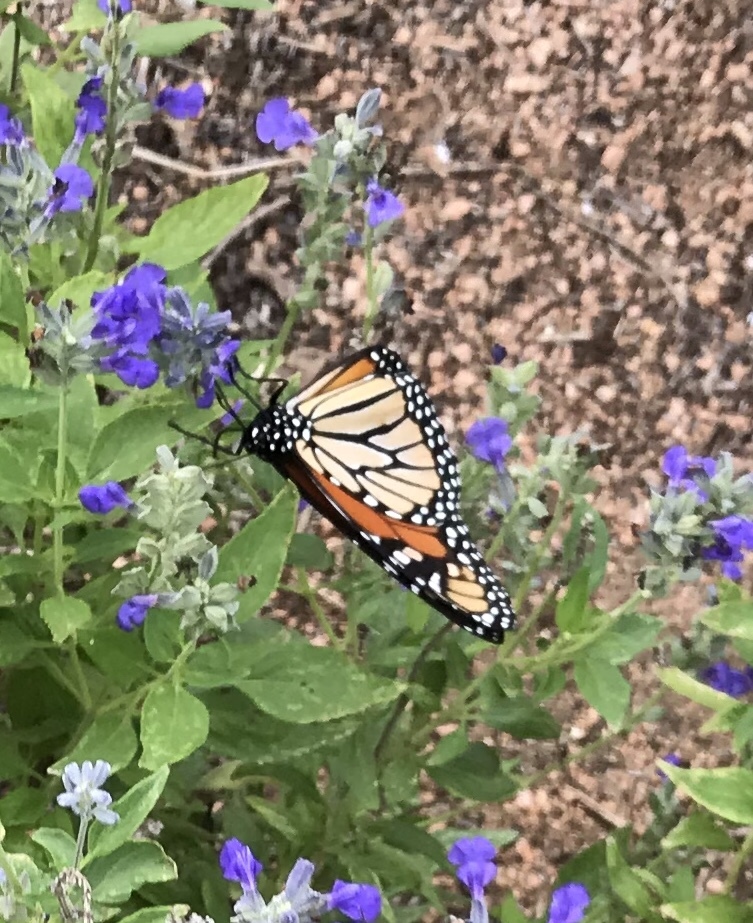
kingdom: Animalia
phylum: Arthropoda
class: Insecta
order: Lepidoptera
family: Nymphalidae
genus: Danaus
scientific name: Danaus plexippus
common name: Monarch
